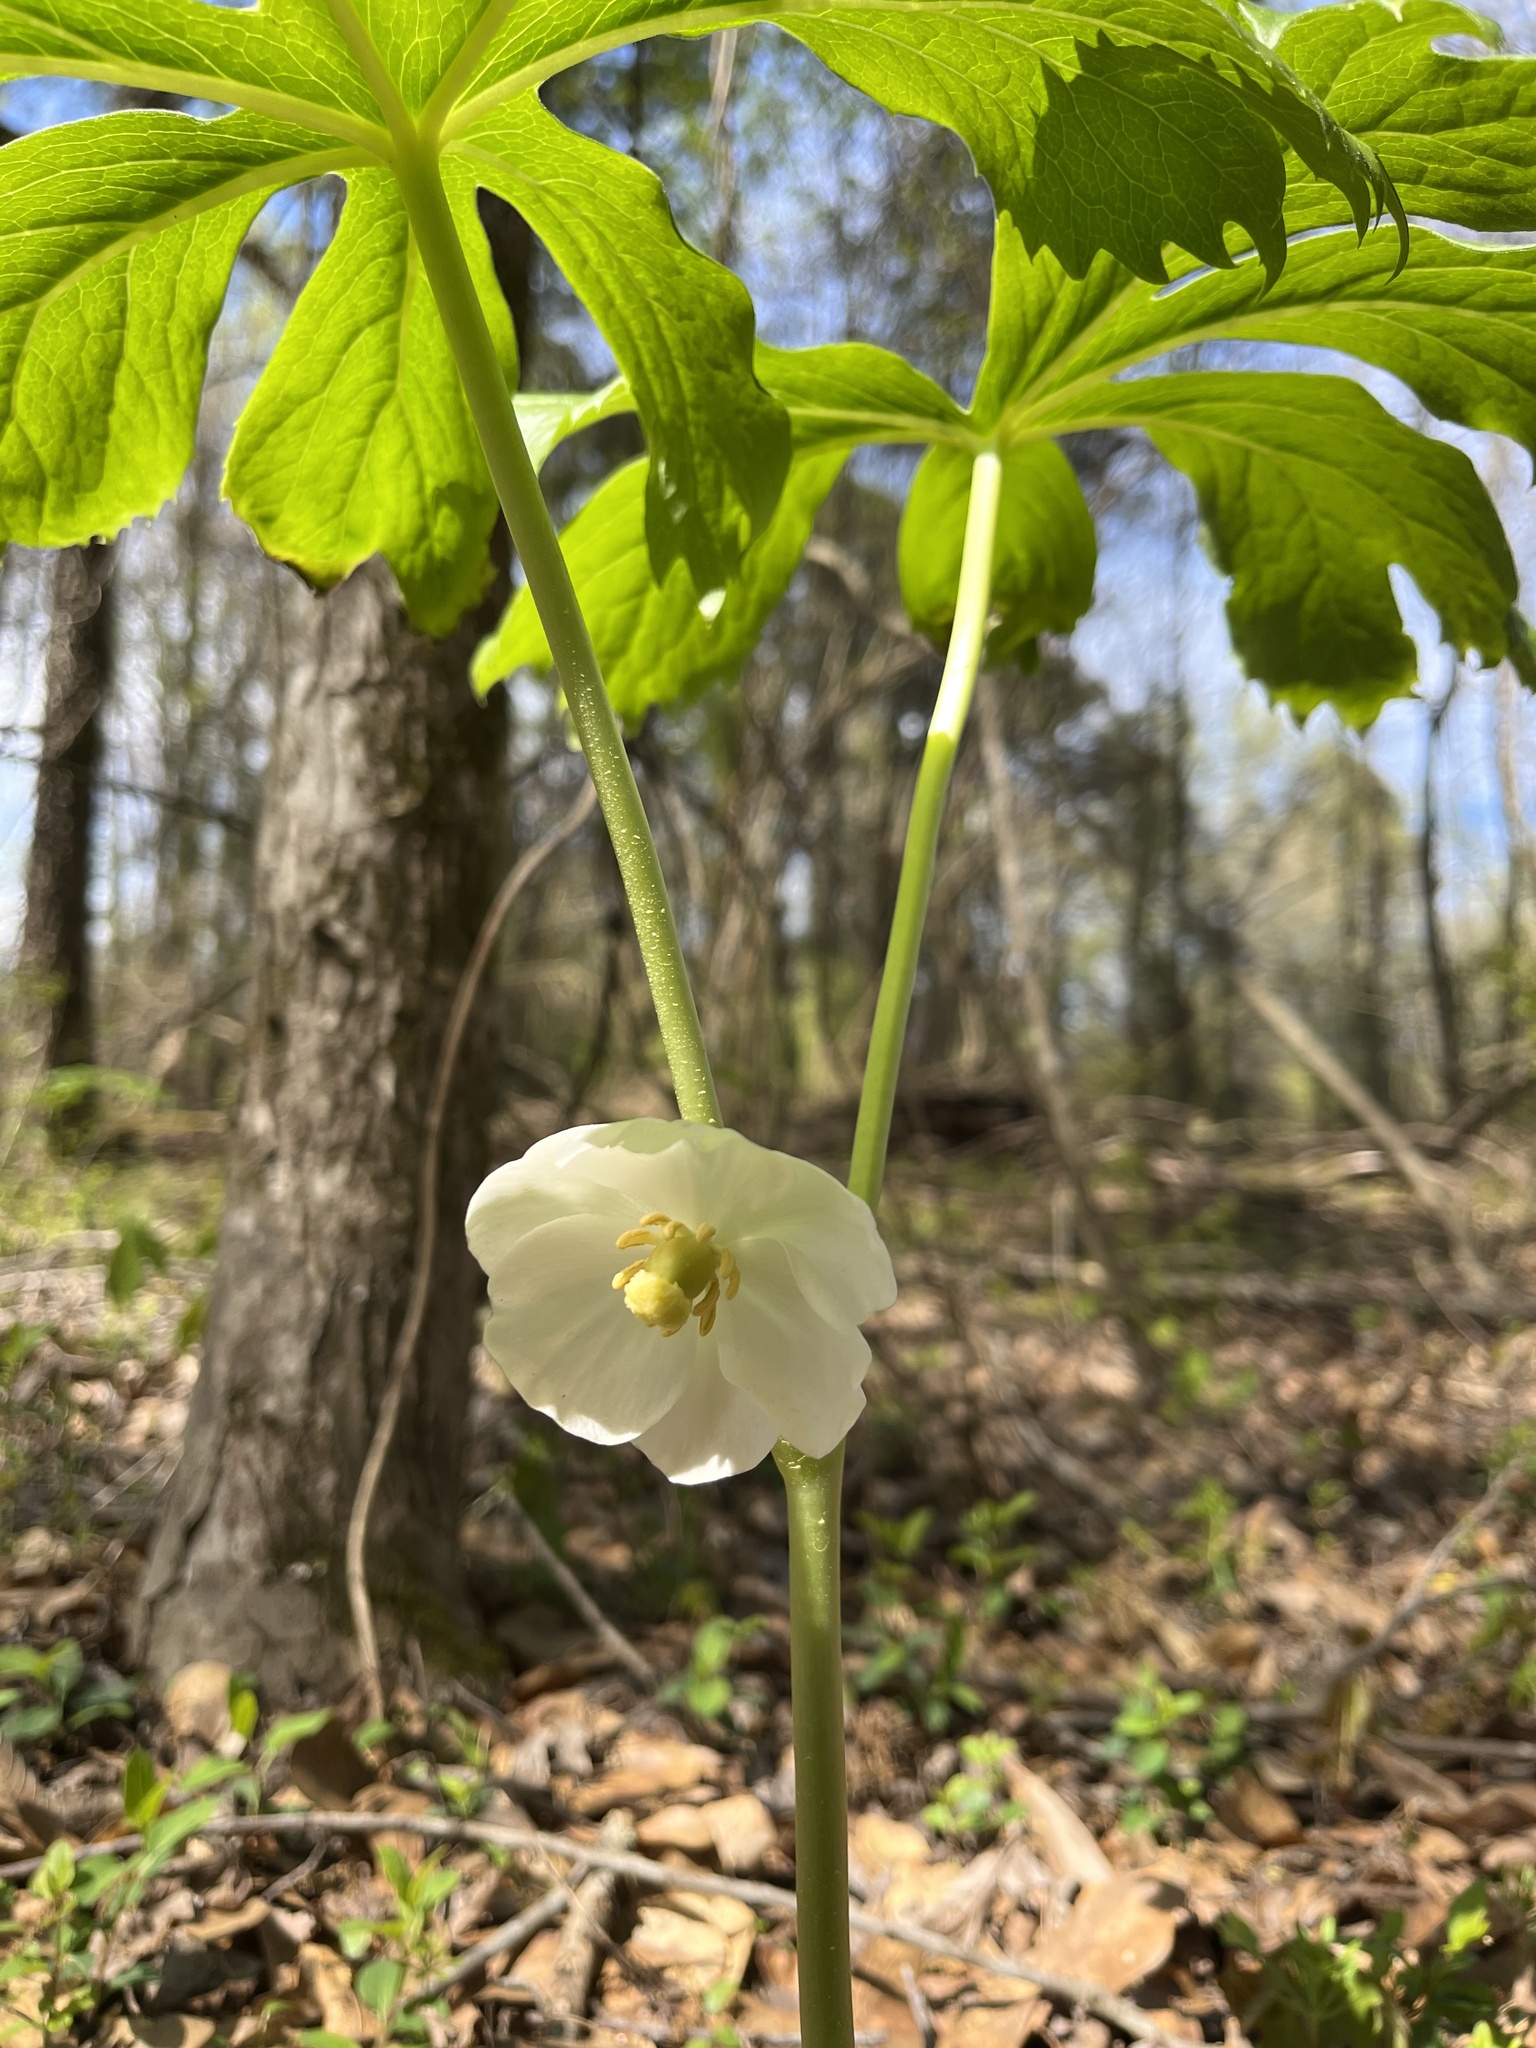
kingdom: Plantae
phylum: Tracheophyta
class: Magnoliopsida
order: Ranunculales
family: Berberidaceae
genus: Podophyllum
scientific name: Podophyllum peltatum
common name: Wild mandrake
